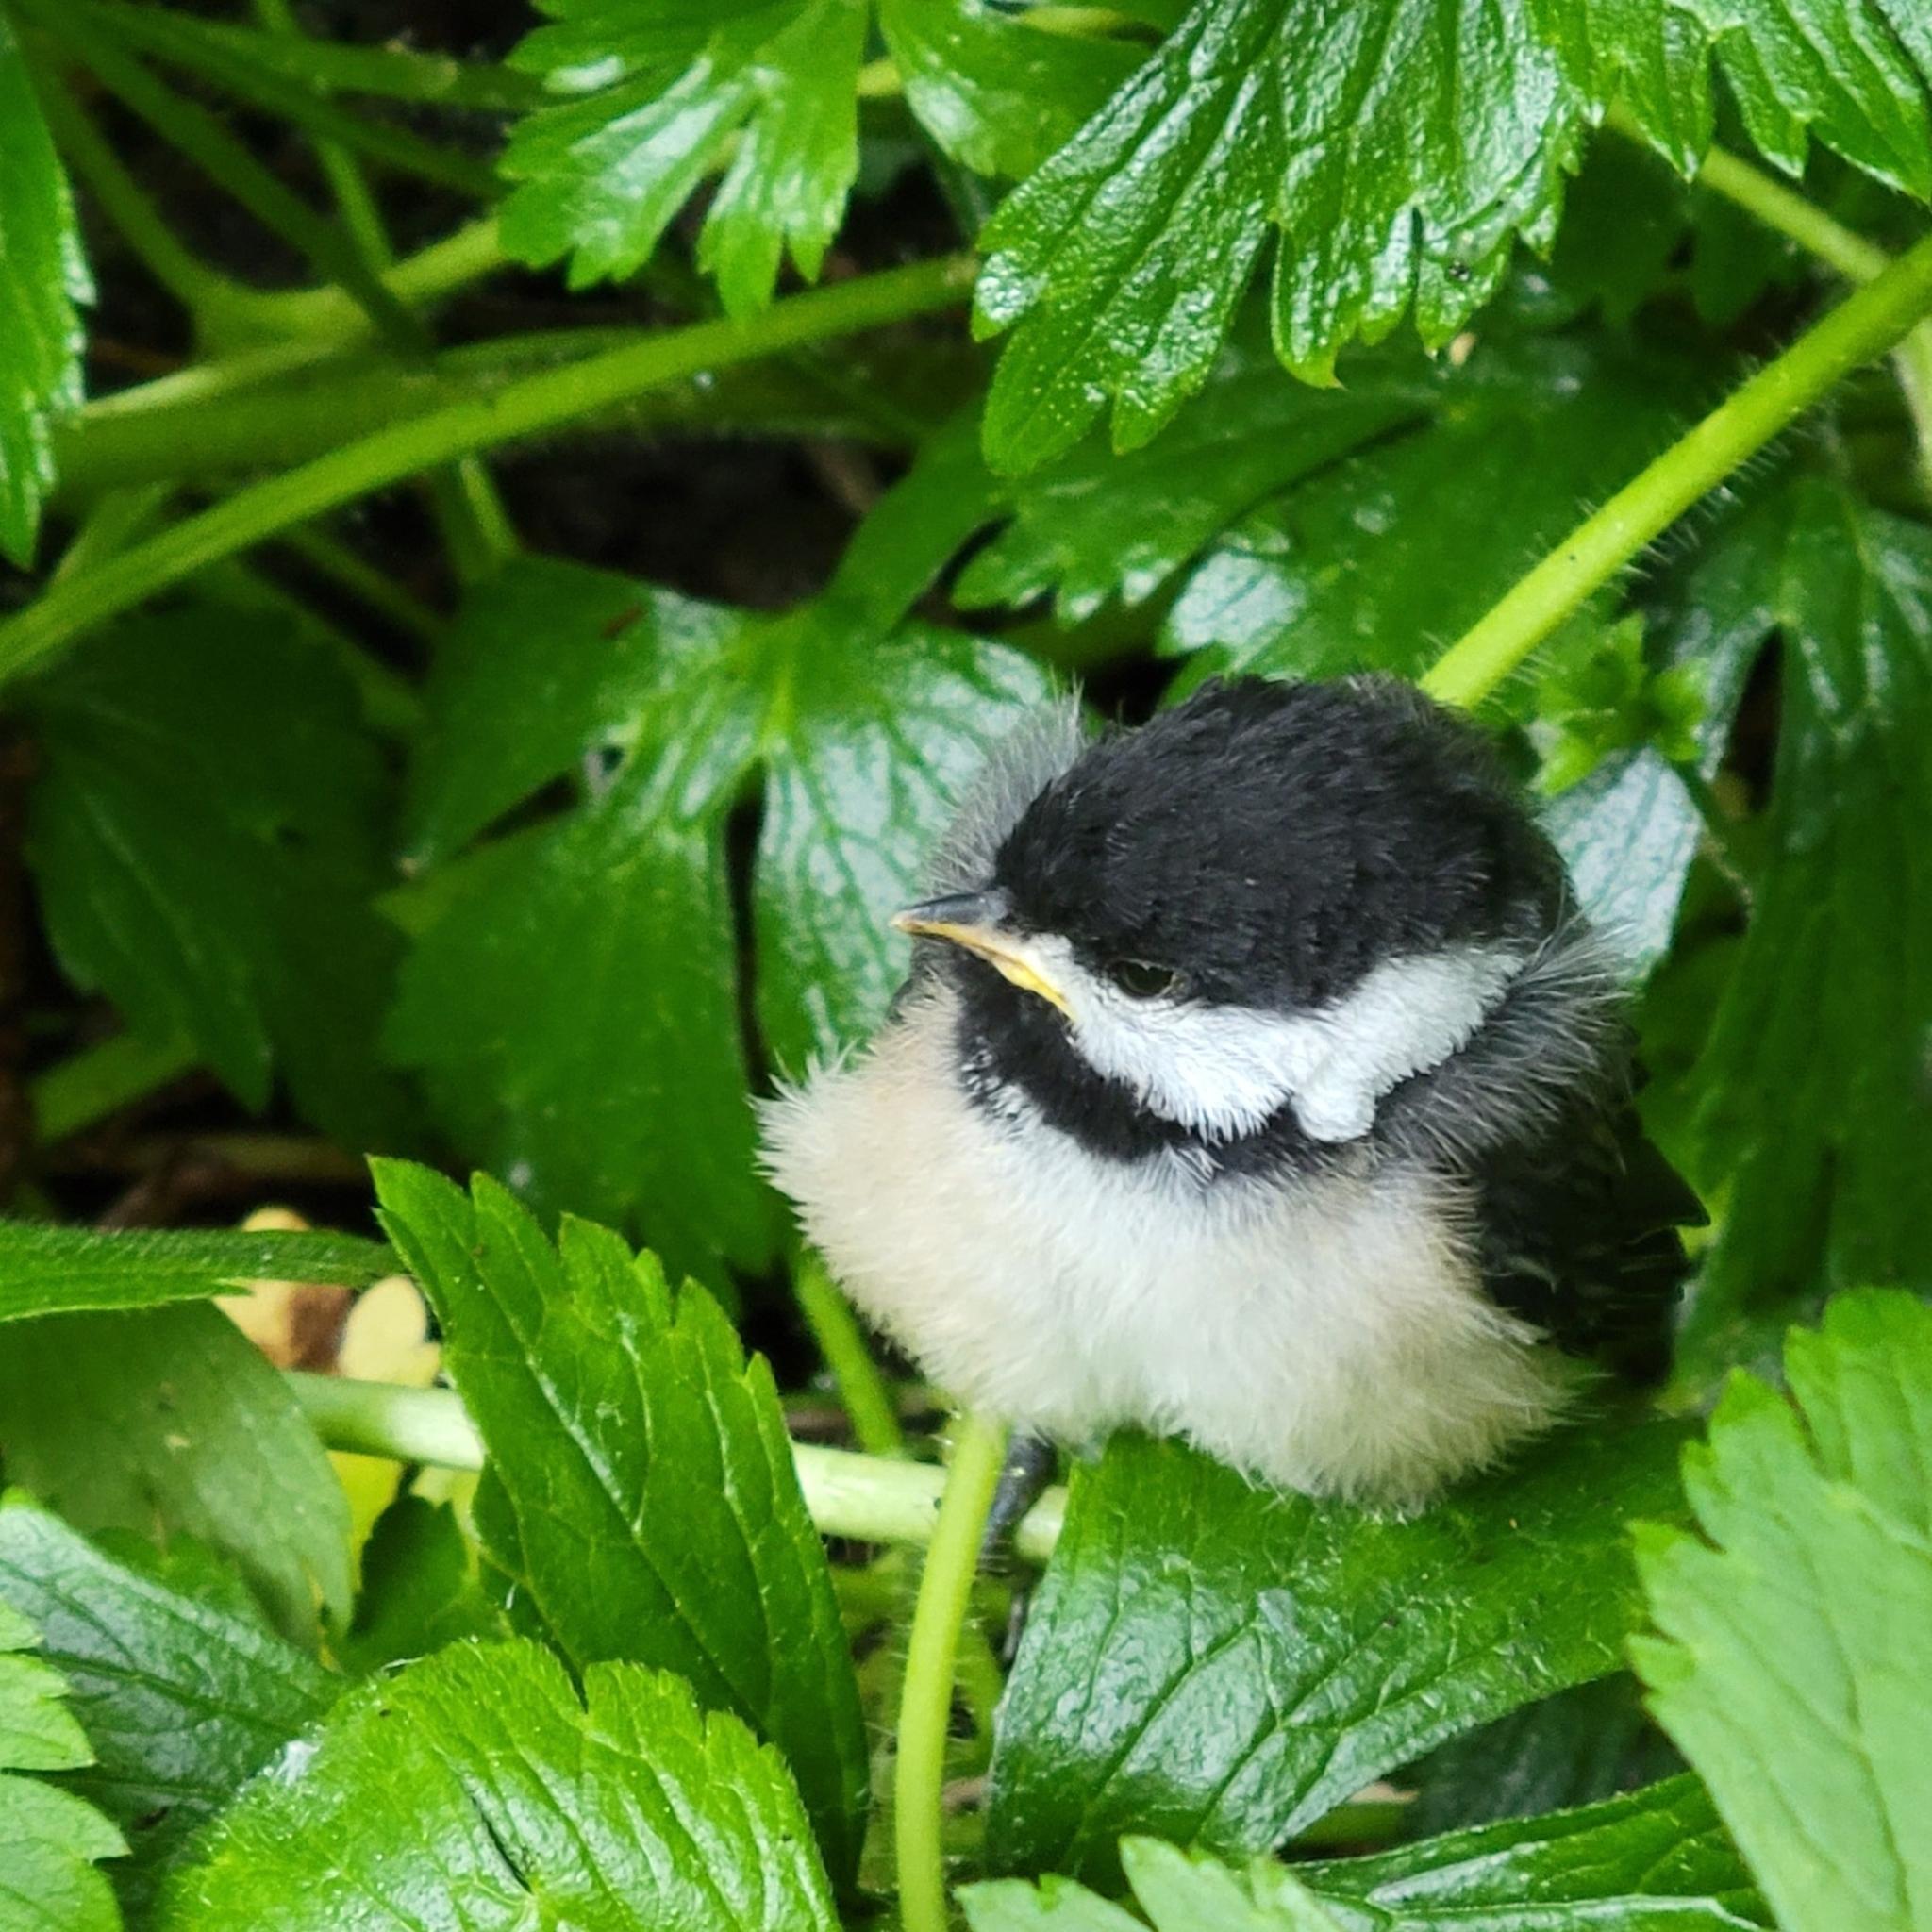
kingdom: Animalia
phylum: Chordata
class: Aves
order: Passeriformes
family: Paridae
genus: Poecile
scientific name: Poecile atricapillus
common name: Black-capped chickadee
